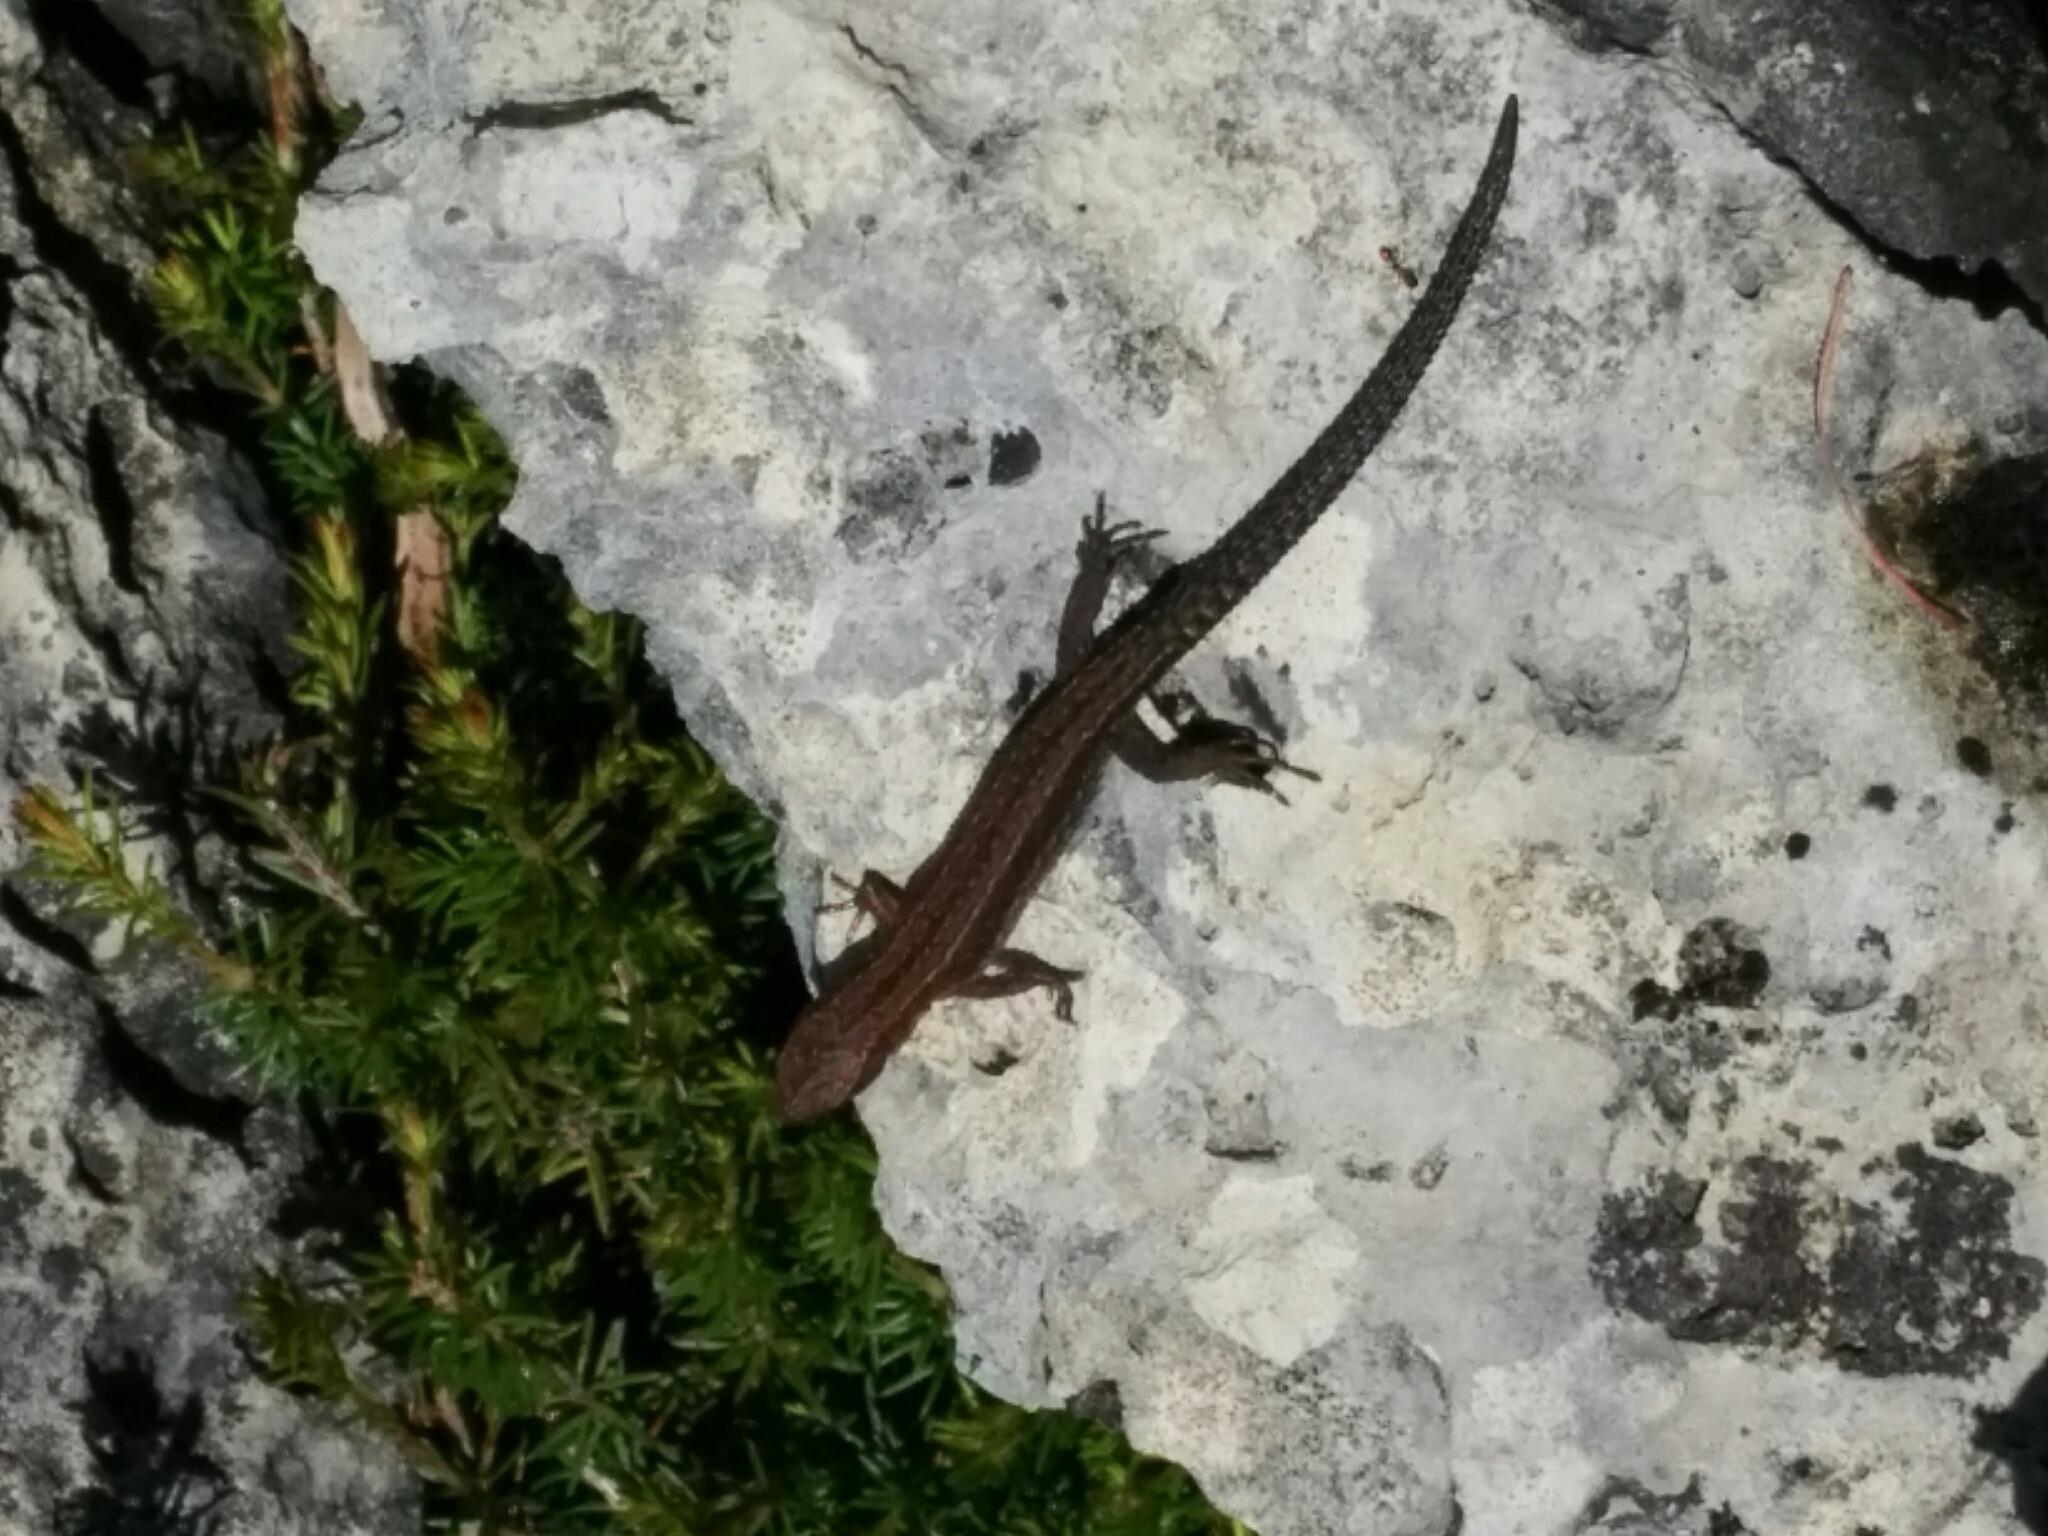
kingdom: Animalia
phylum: Chordata
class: Squamata
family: Lacertidae
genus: Zootoca
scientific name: Zootoca vivipara
